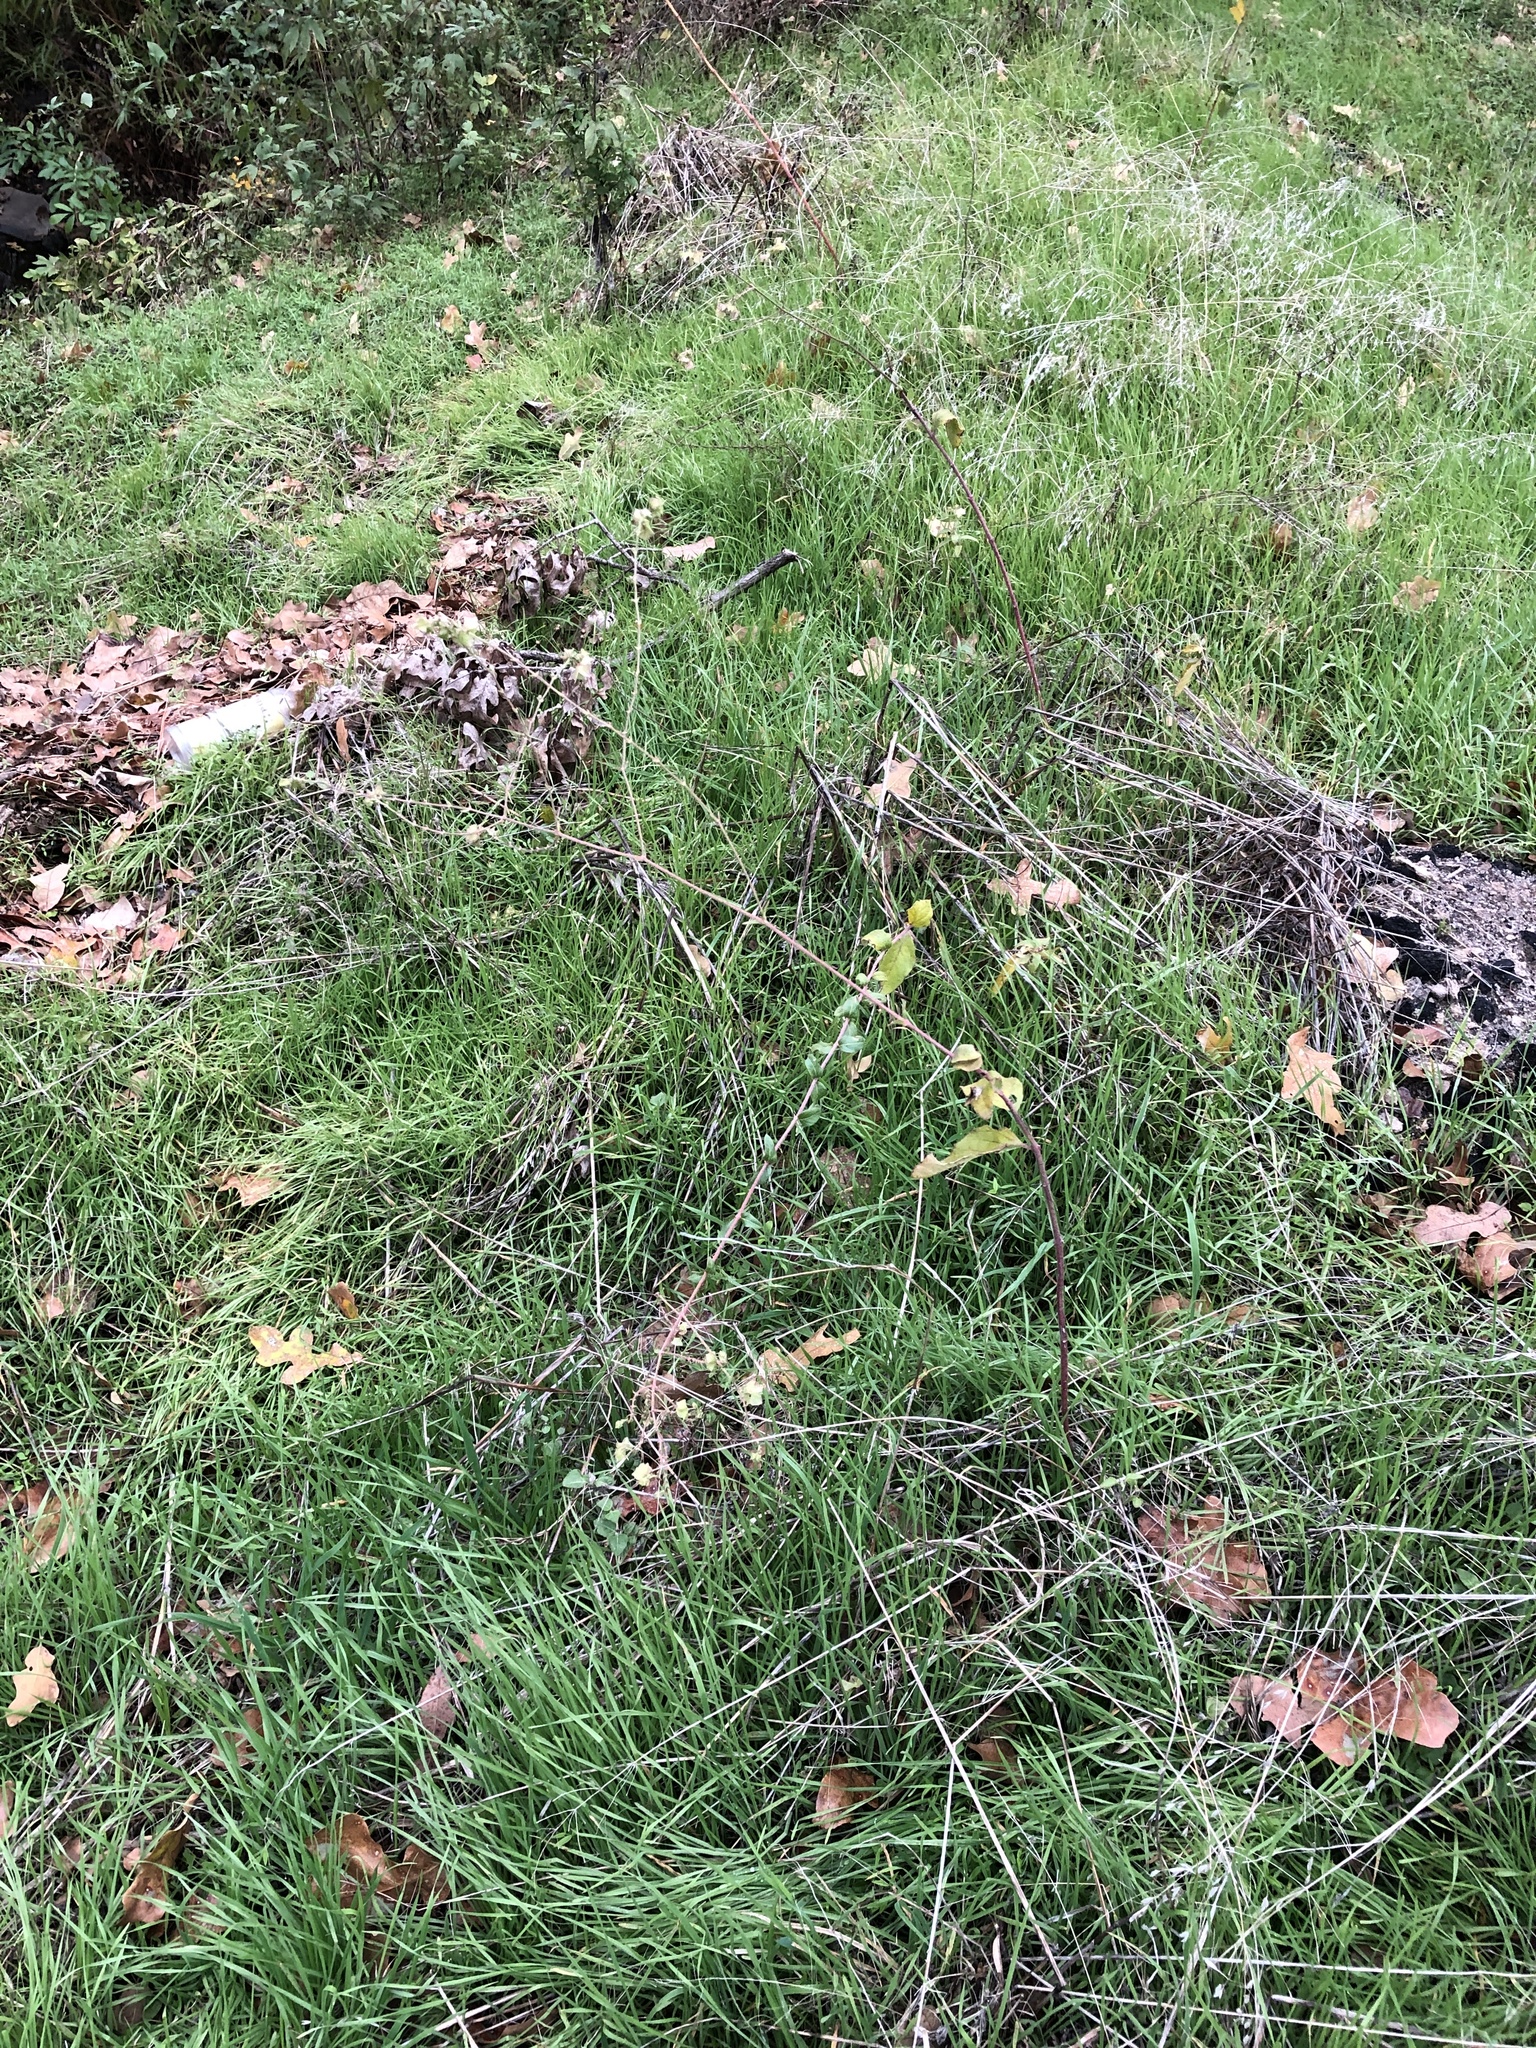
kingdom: Plantae
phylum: Tracheophyta
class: Magnoliopsida
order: Caryophyllales
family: Nyctaginaceae
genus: Mirabilis
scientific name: Mirabilis albida
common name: Hairy four-o'clock
